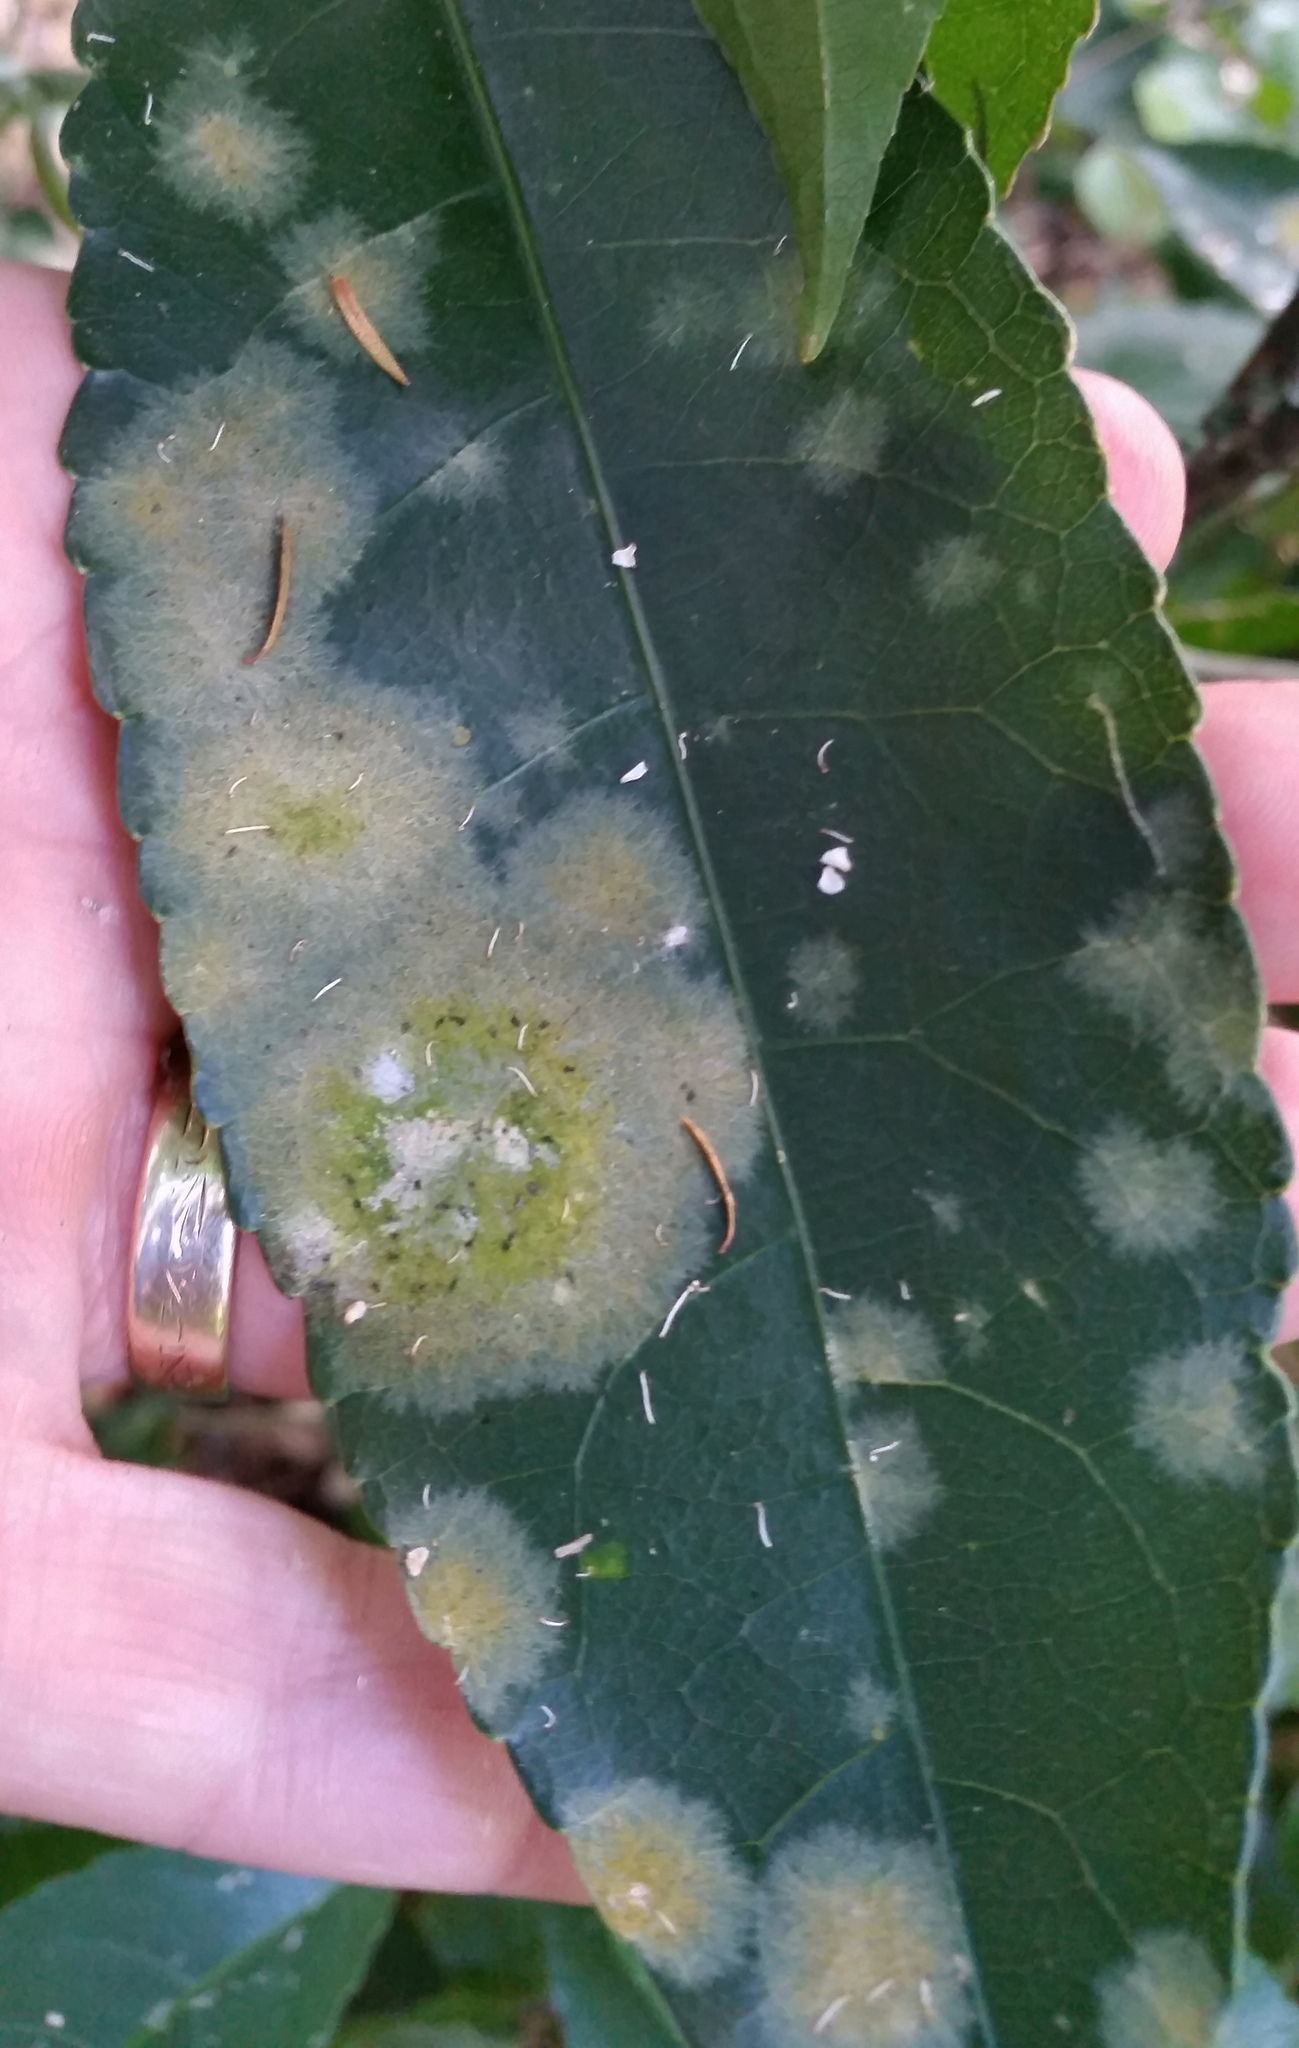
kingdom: Plantae
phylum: Chlorophyta
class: Ulvophyceae
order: Trentepohliales
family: Trentepohliaceae
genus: Cephaleuros
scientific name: Cephaleuros
